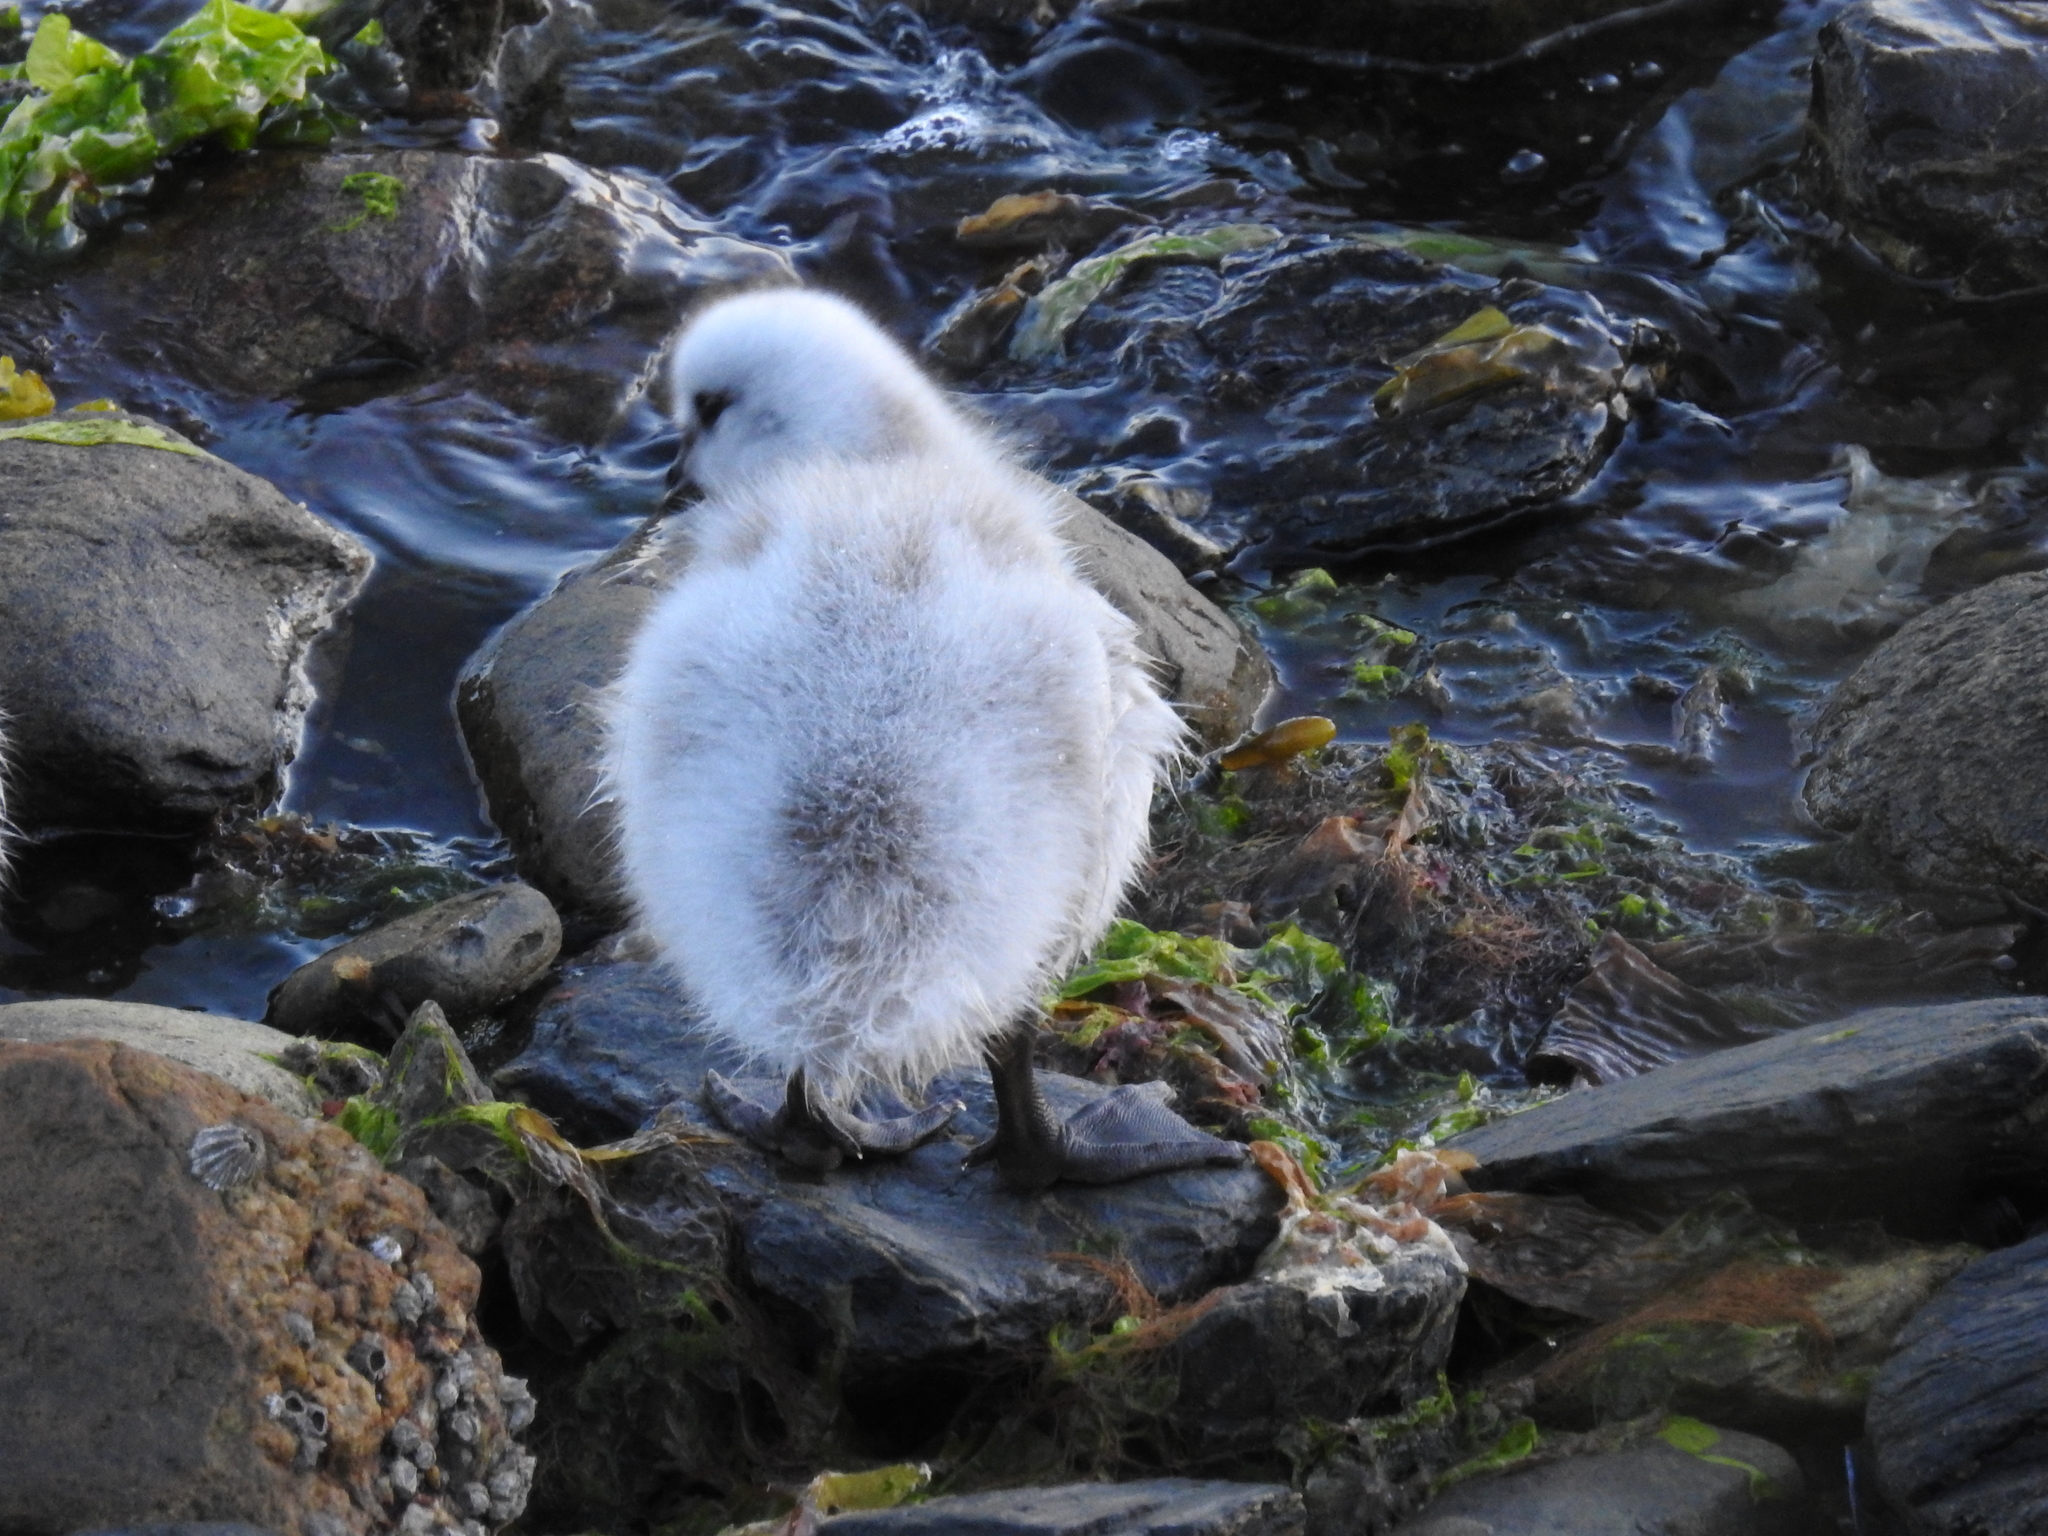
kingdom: Animalia
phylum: Chordata
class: Aves
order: Anseriformes
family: Anatidae
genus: Chloephaga
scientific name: Chloephaga hybrida
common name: Kelp goose
